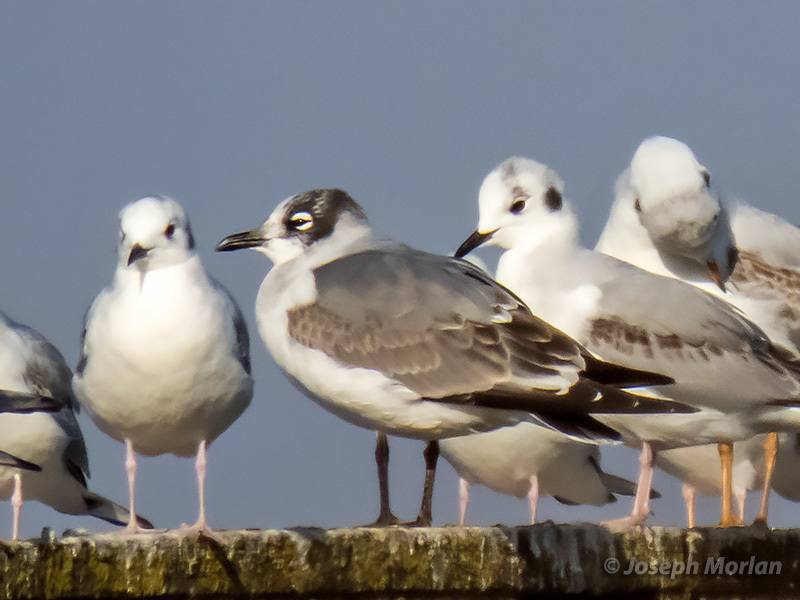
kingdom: Animalia
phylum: Chordata
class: Aves
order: Charadriiformes
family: Laridae
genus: Leucophaeus
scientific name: Leucophaeus pipixcan
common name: Franklin's gull
